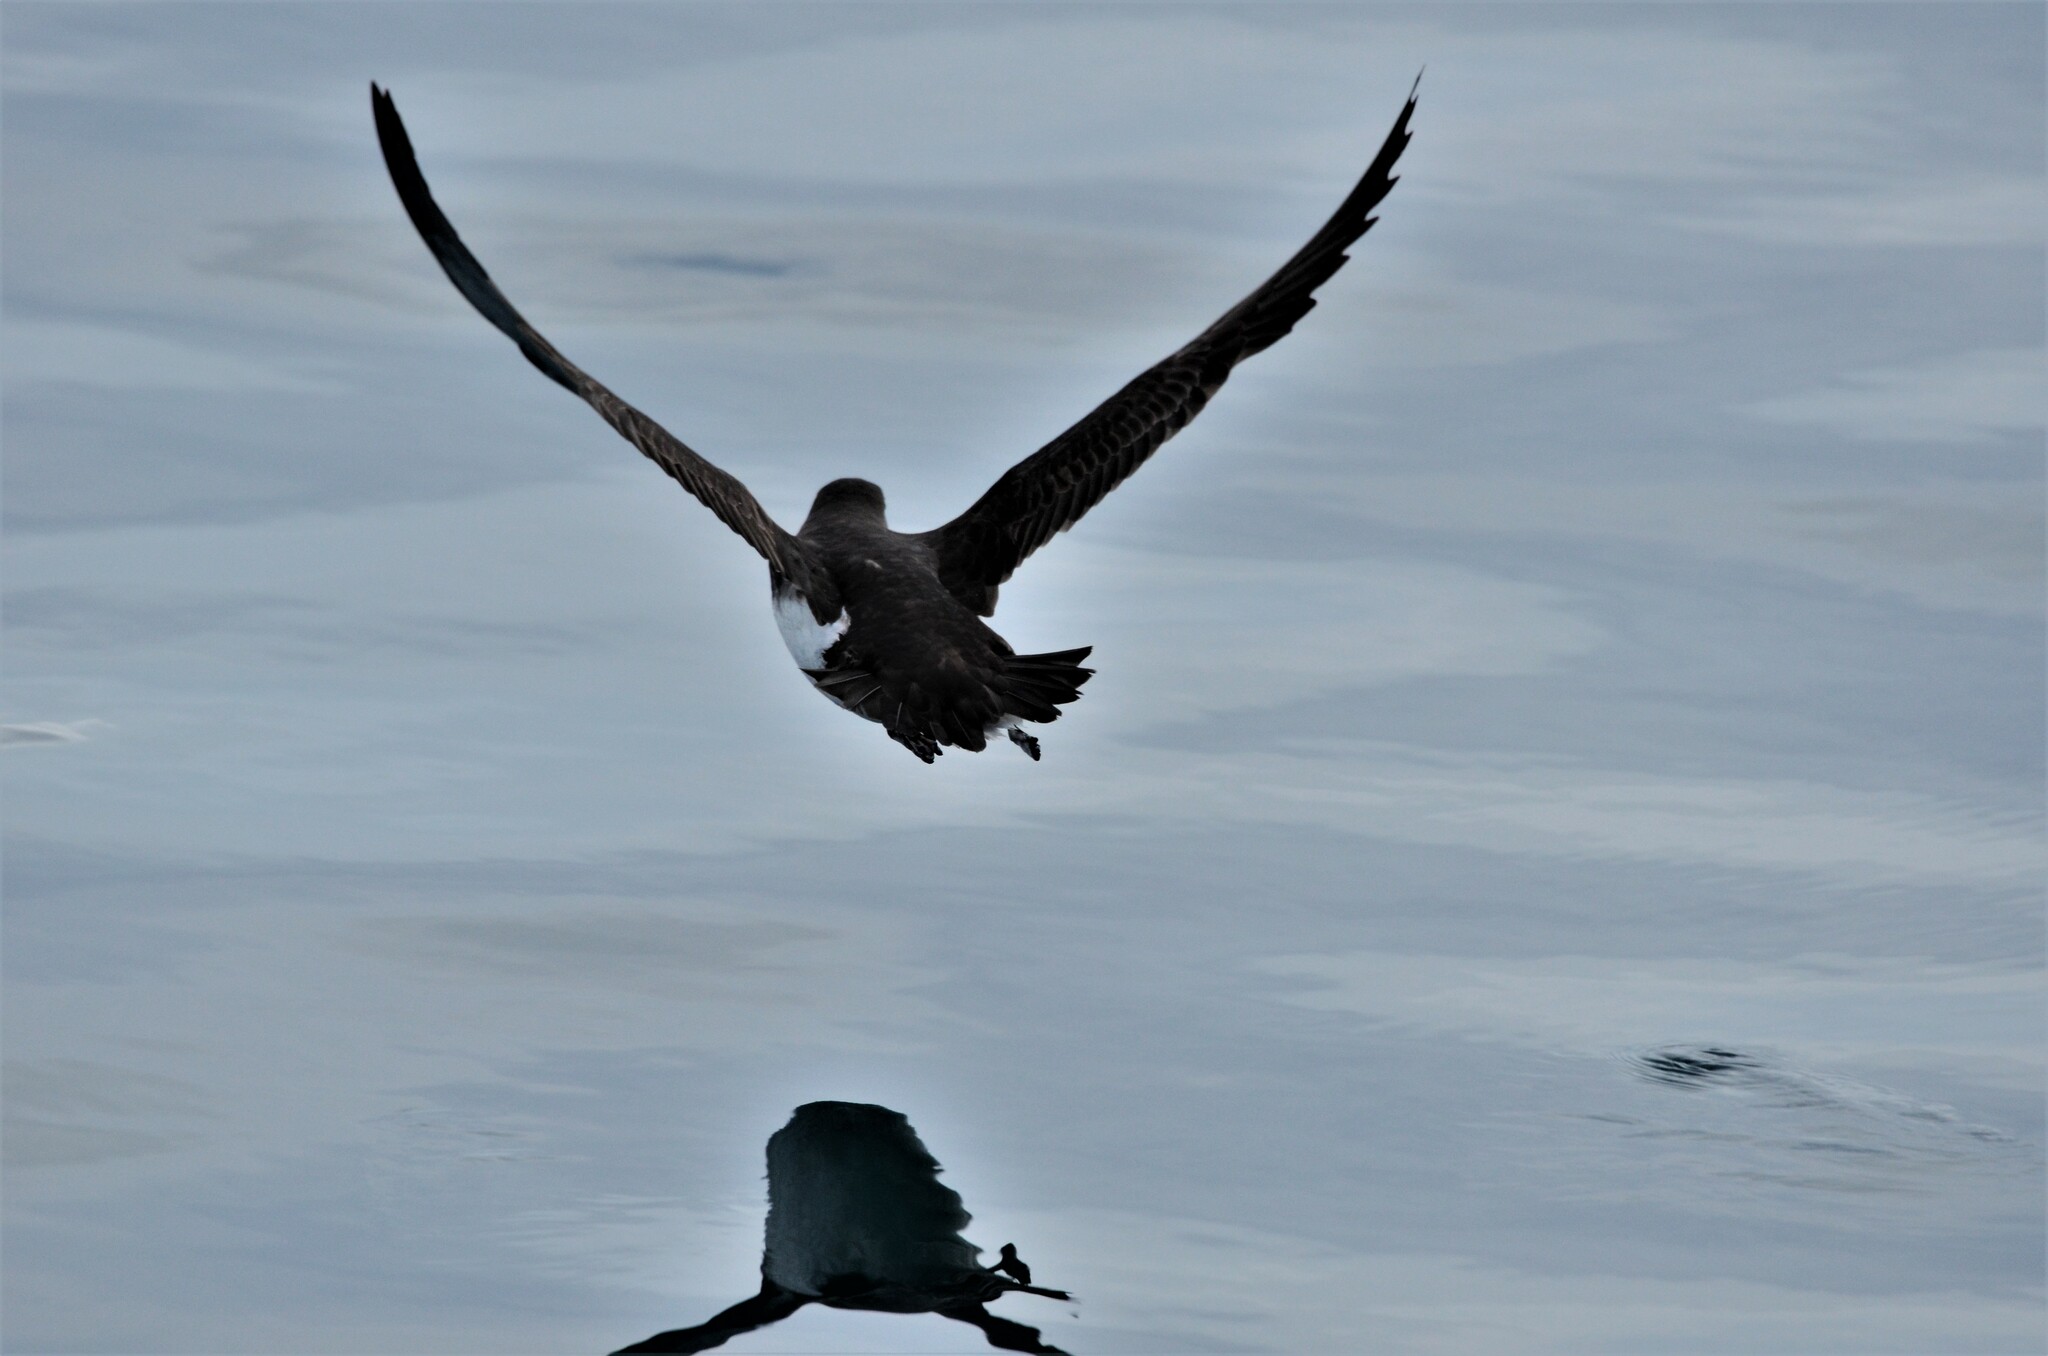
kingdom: Animalia
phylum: Chordata
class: Aves
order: Procellariiformes
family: Procellariidae
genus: Puffinus
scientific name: Puffinus huttoni
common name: Hutton's shearwater
